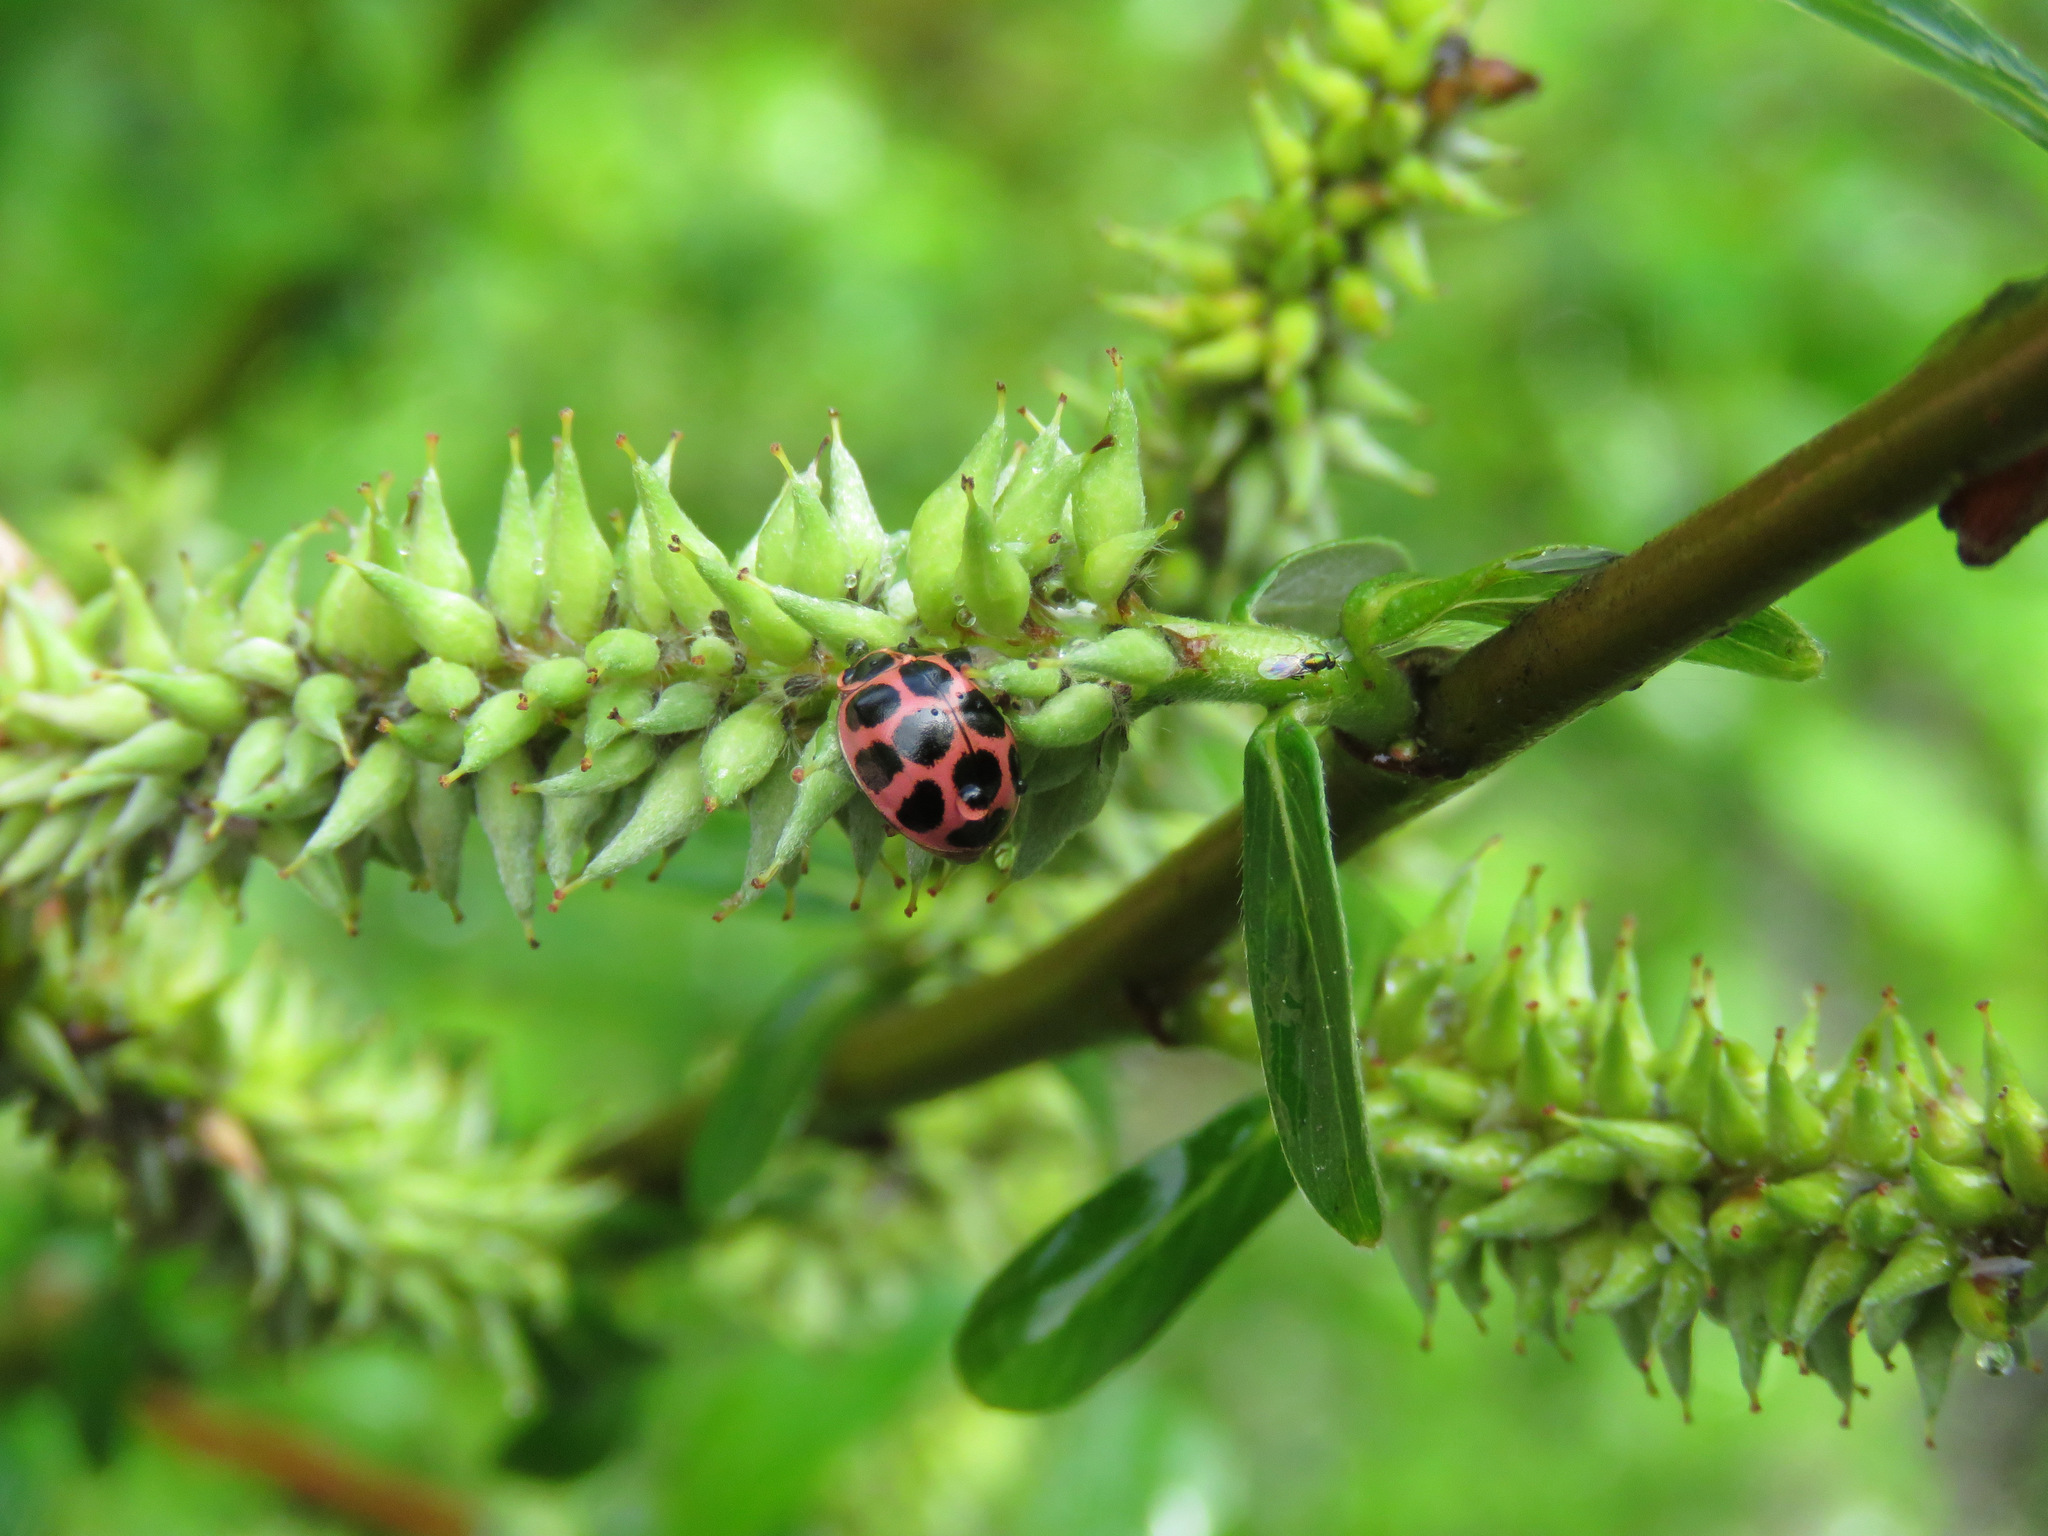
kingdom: Animalia
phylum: Arthropoda
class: Insecta
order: Coleoptera
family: Coccinellidae
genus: Calvia
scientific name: Calvia quatuordecimguttata
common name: Cream-spot ladybird
